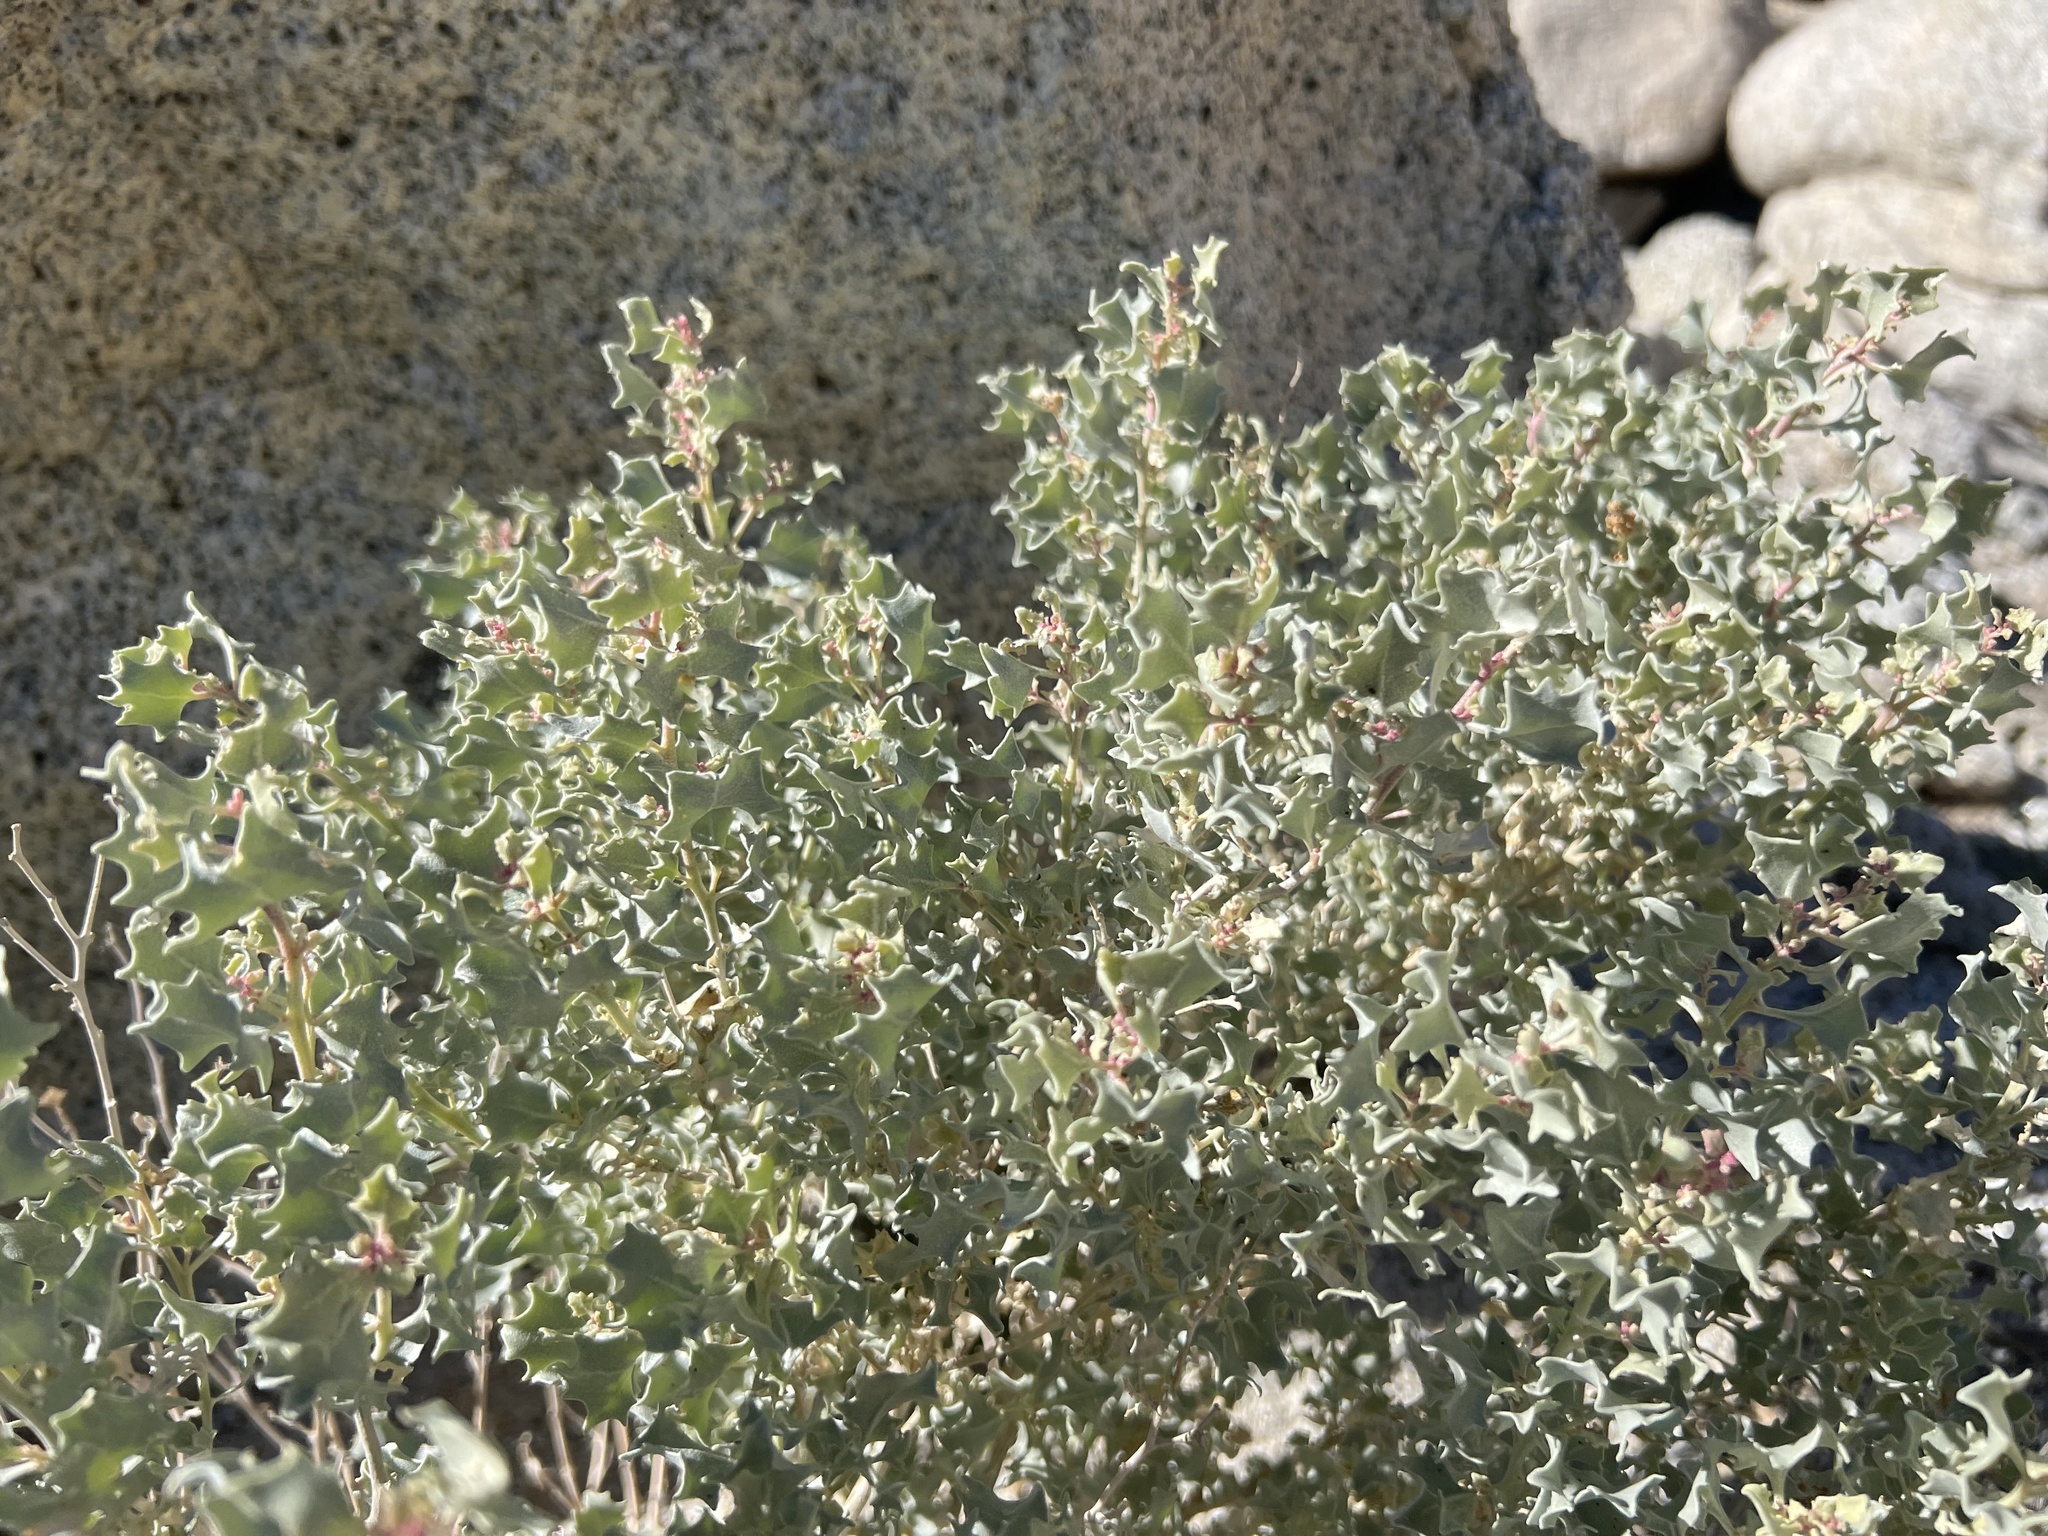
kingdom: Plantae
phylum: Tracheophyta
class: Magnoliopsida
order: Caryophyllales
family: Amaranthaceae
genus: Atriplex
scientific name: Atriplex hymenelytra
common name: Desert-holly
